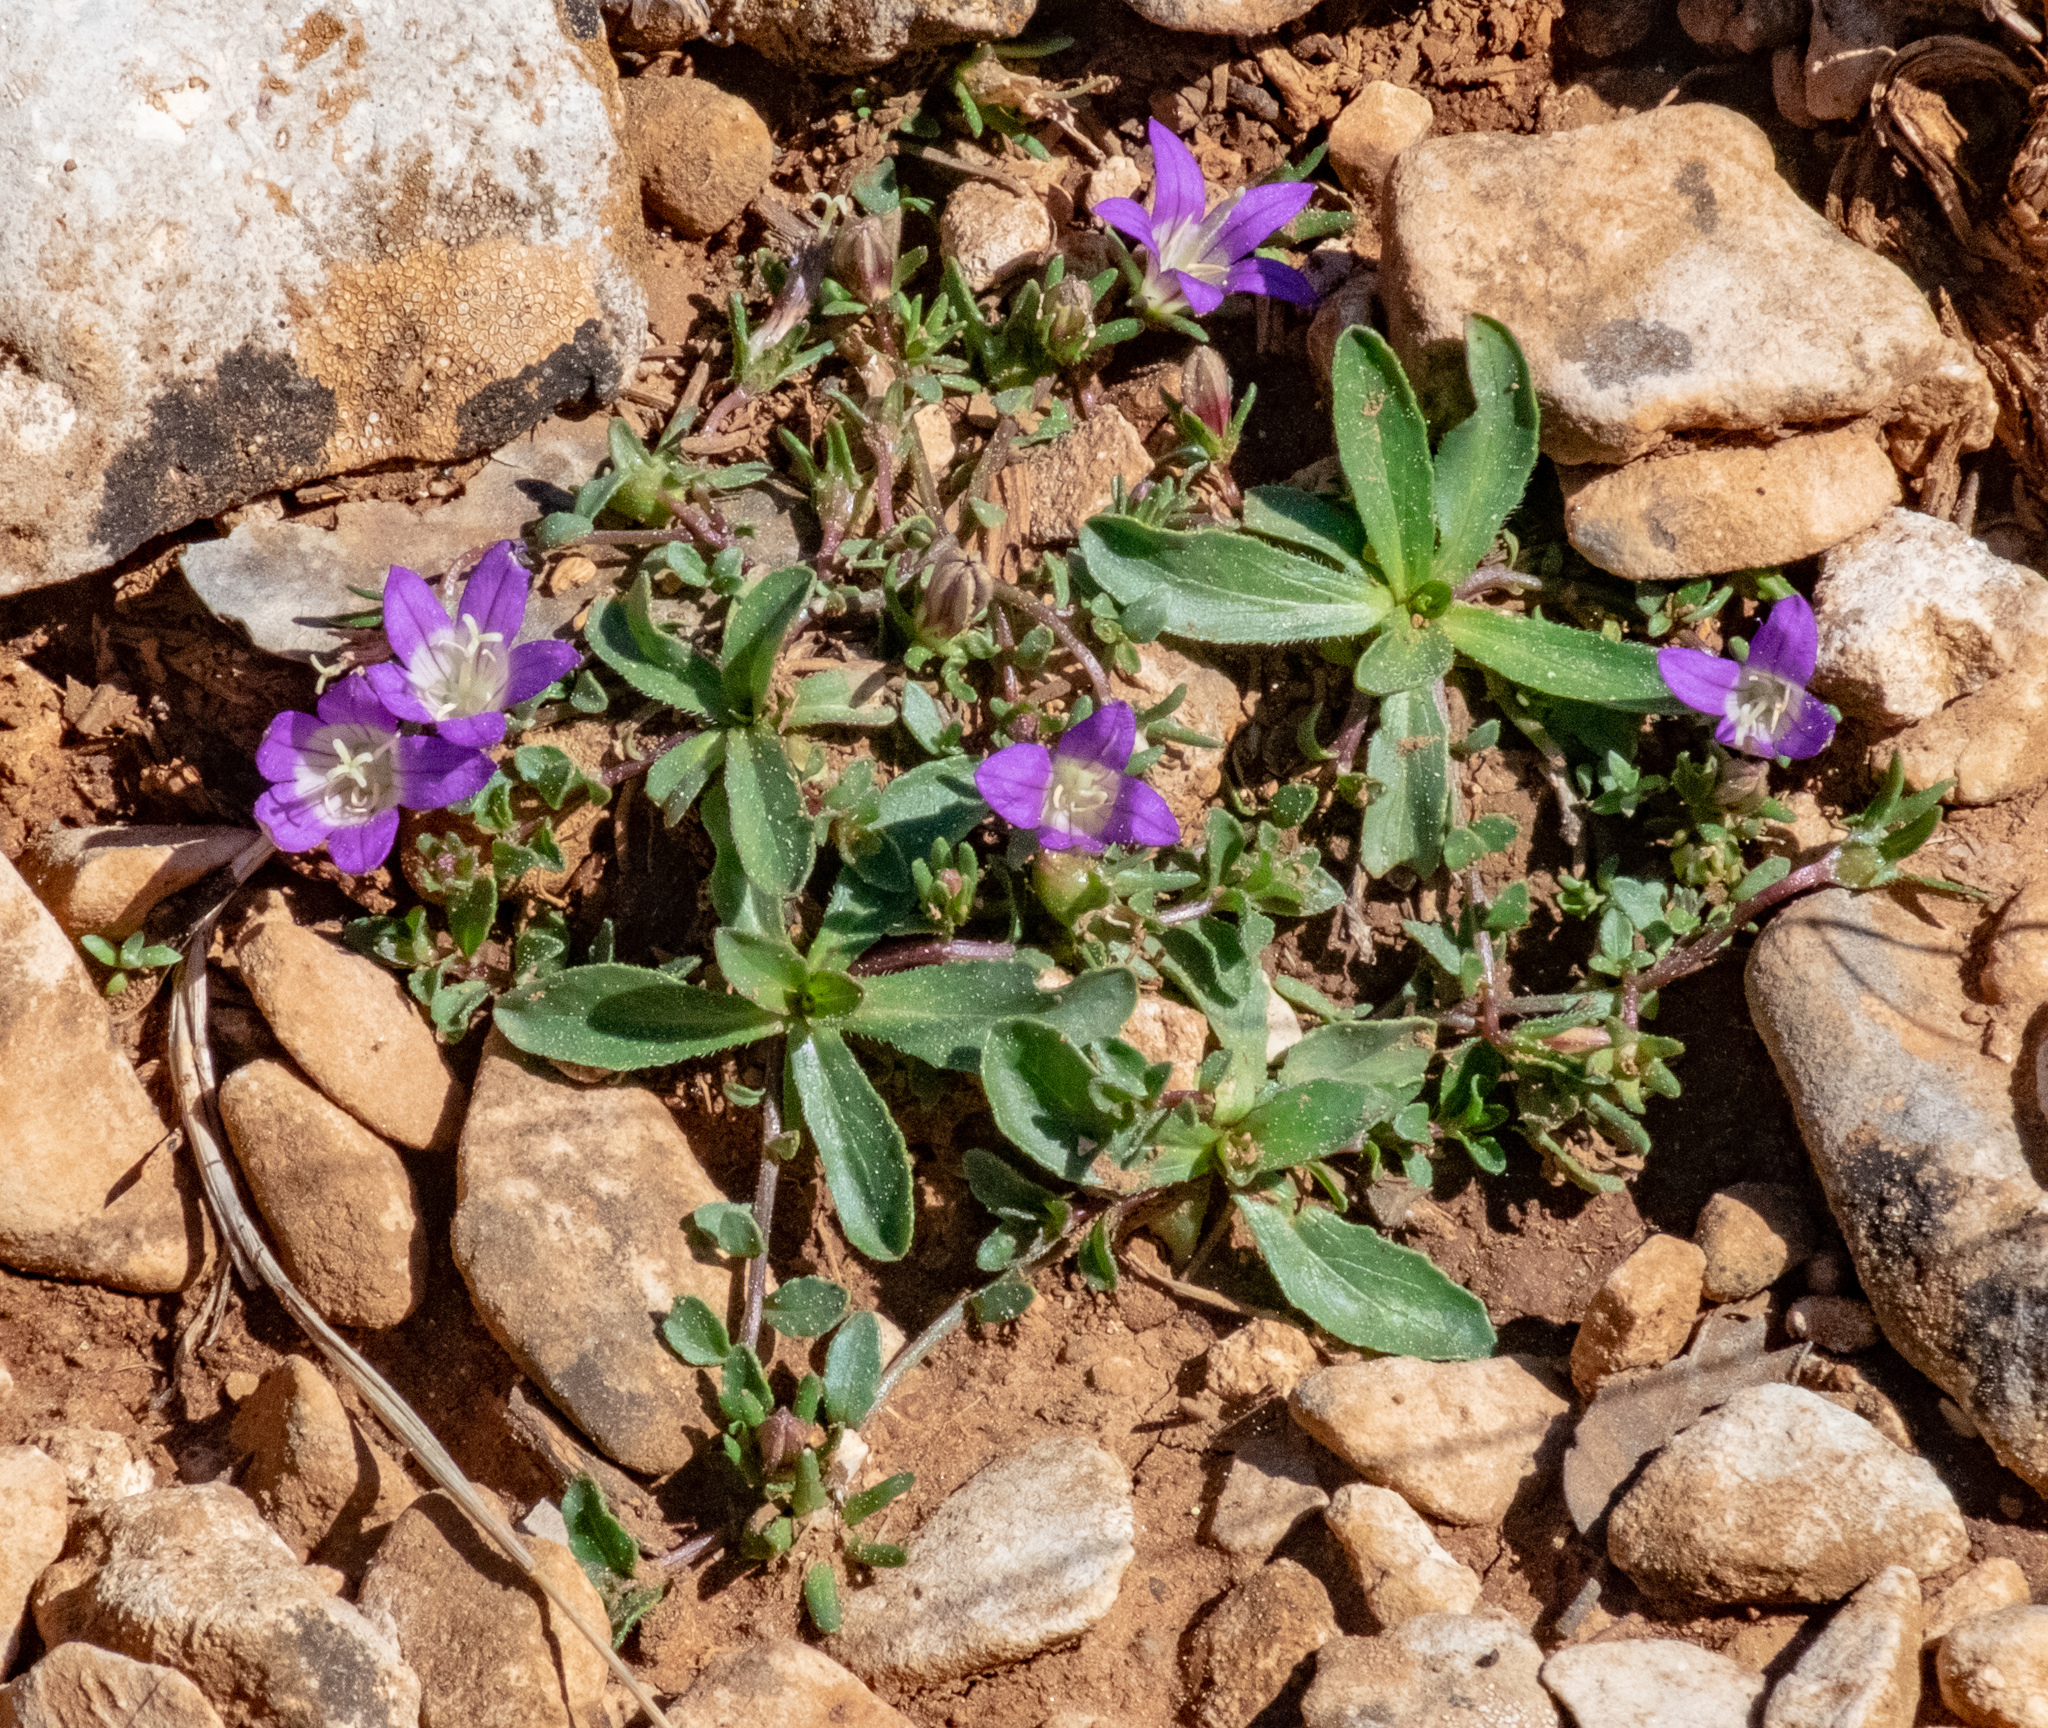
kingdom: Plantae
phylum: Tracheophyta
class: Magnoliopsida
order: Asterales
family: Campanulaceae
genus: Campanula
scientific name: Campanula filicaulis
